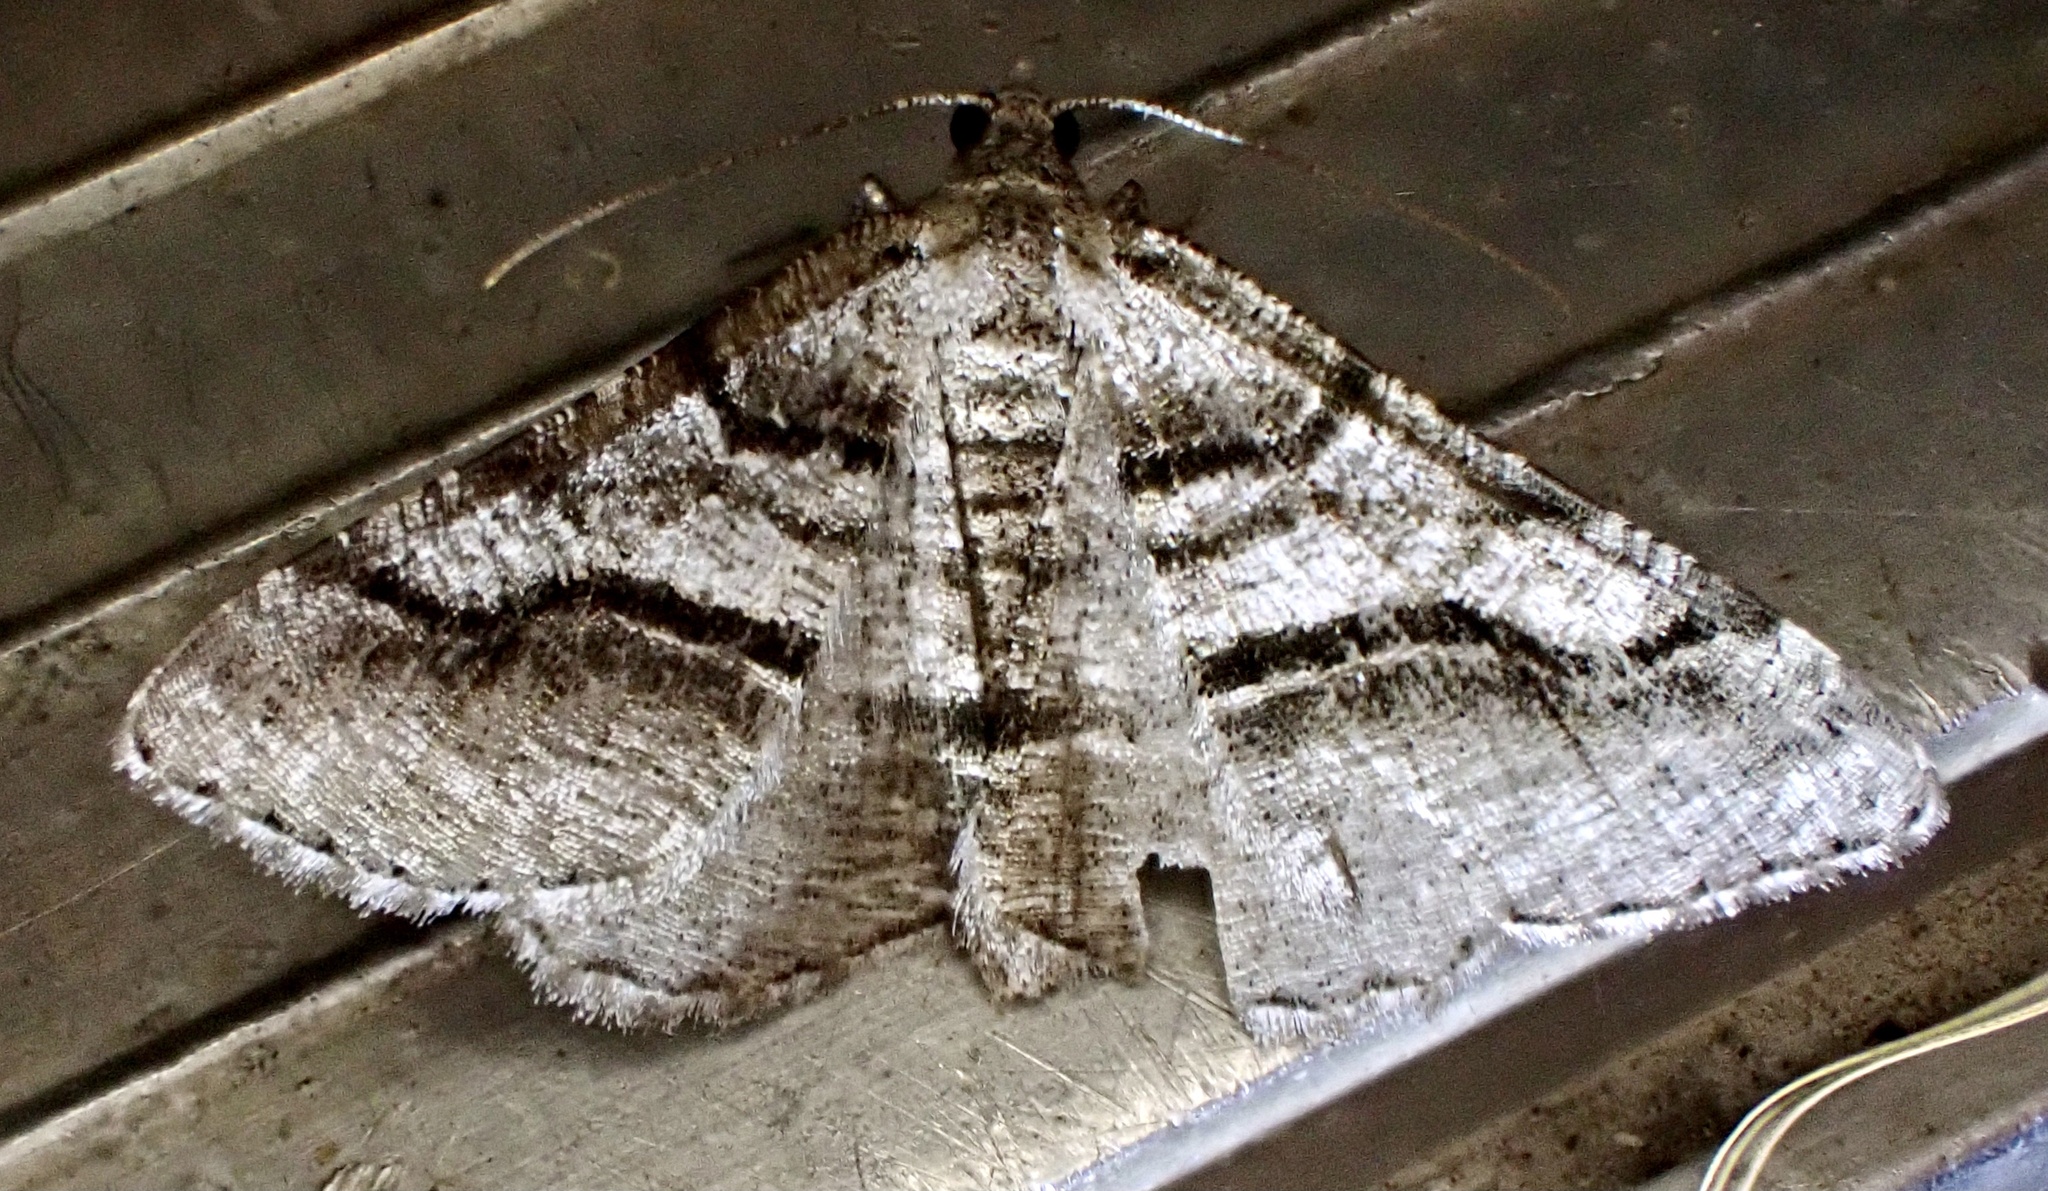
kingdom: Animalia
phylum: Arthropoda
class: Insecta
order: Lepidoptera
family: Geometridae
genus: Digrammia
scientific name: Digrammia continuata
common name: Curve-lined angle
